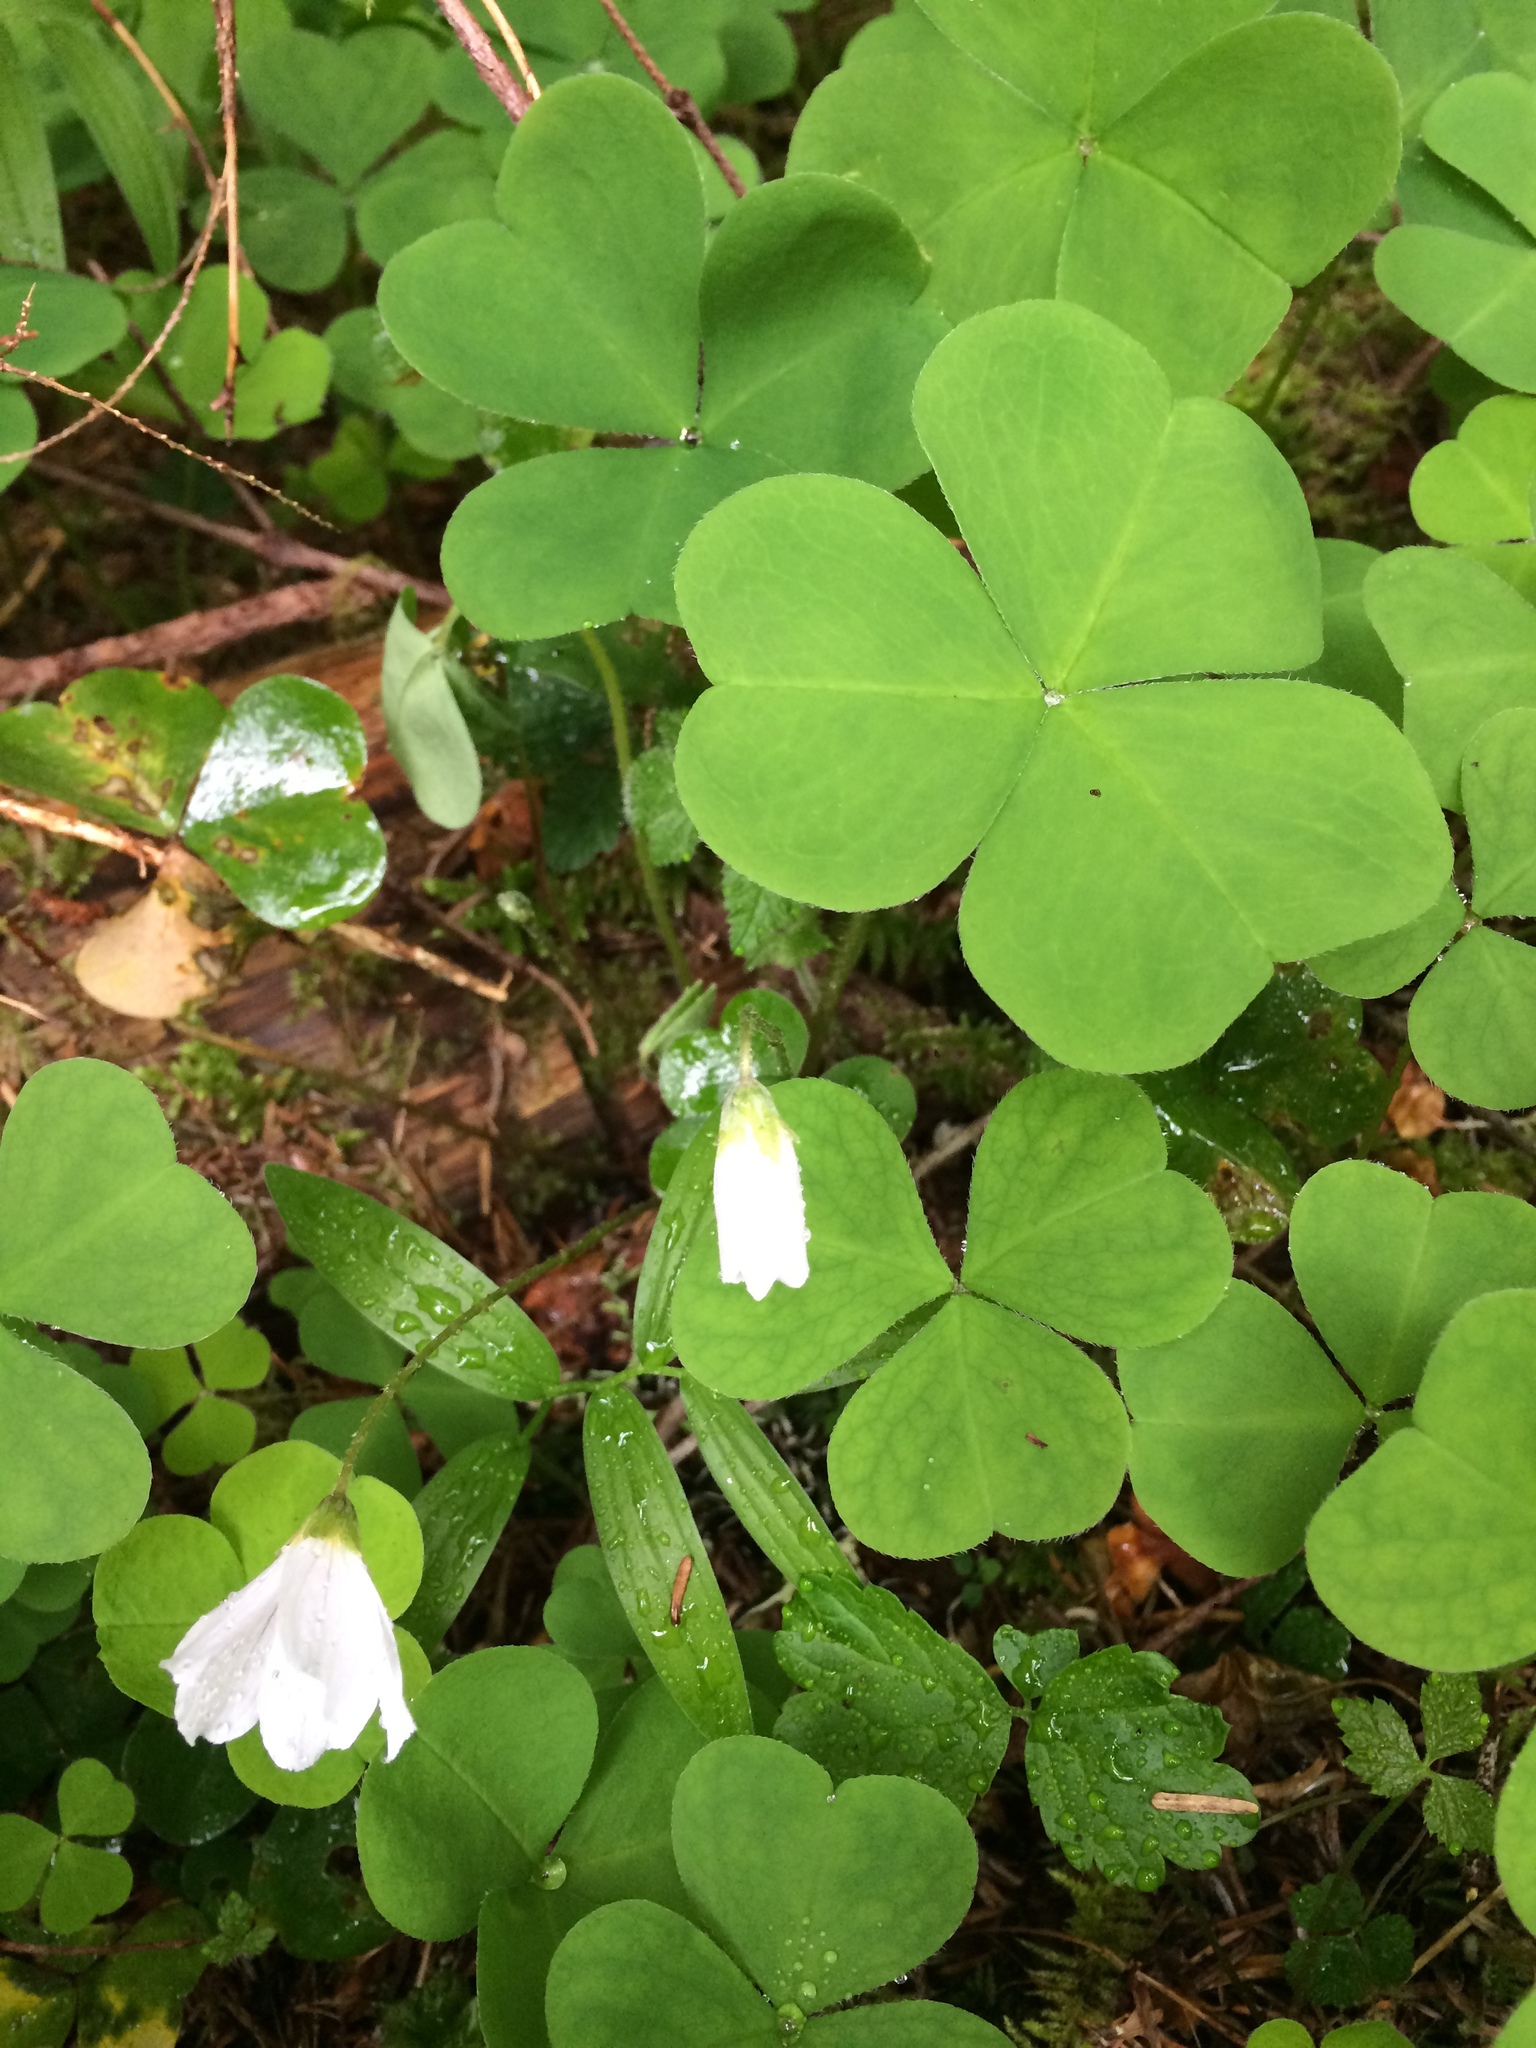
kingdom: Plantae
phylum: Tracheophyta
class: Magnoliopsida
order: Oxalidales
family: Oxalidaceae
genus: Oxalis
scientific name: Oxalis oregana
